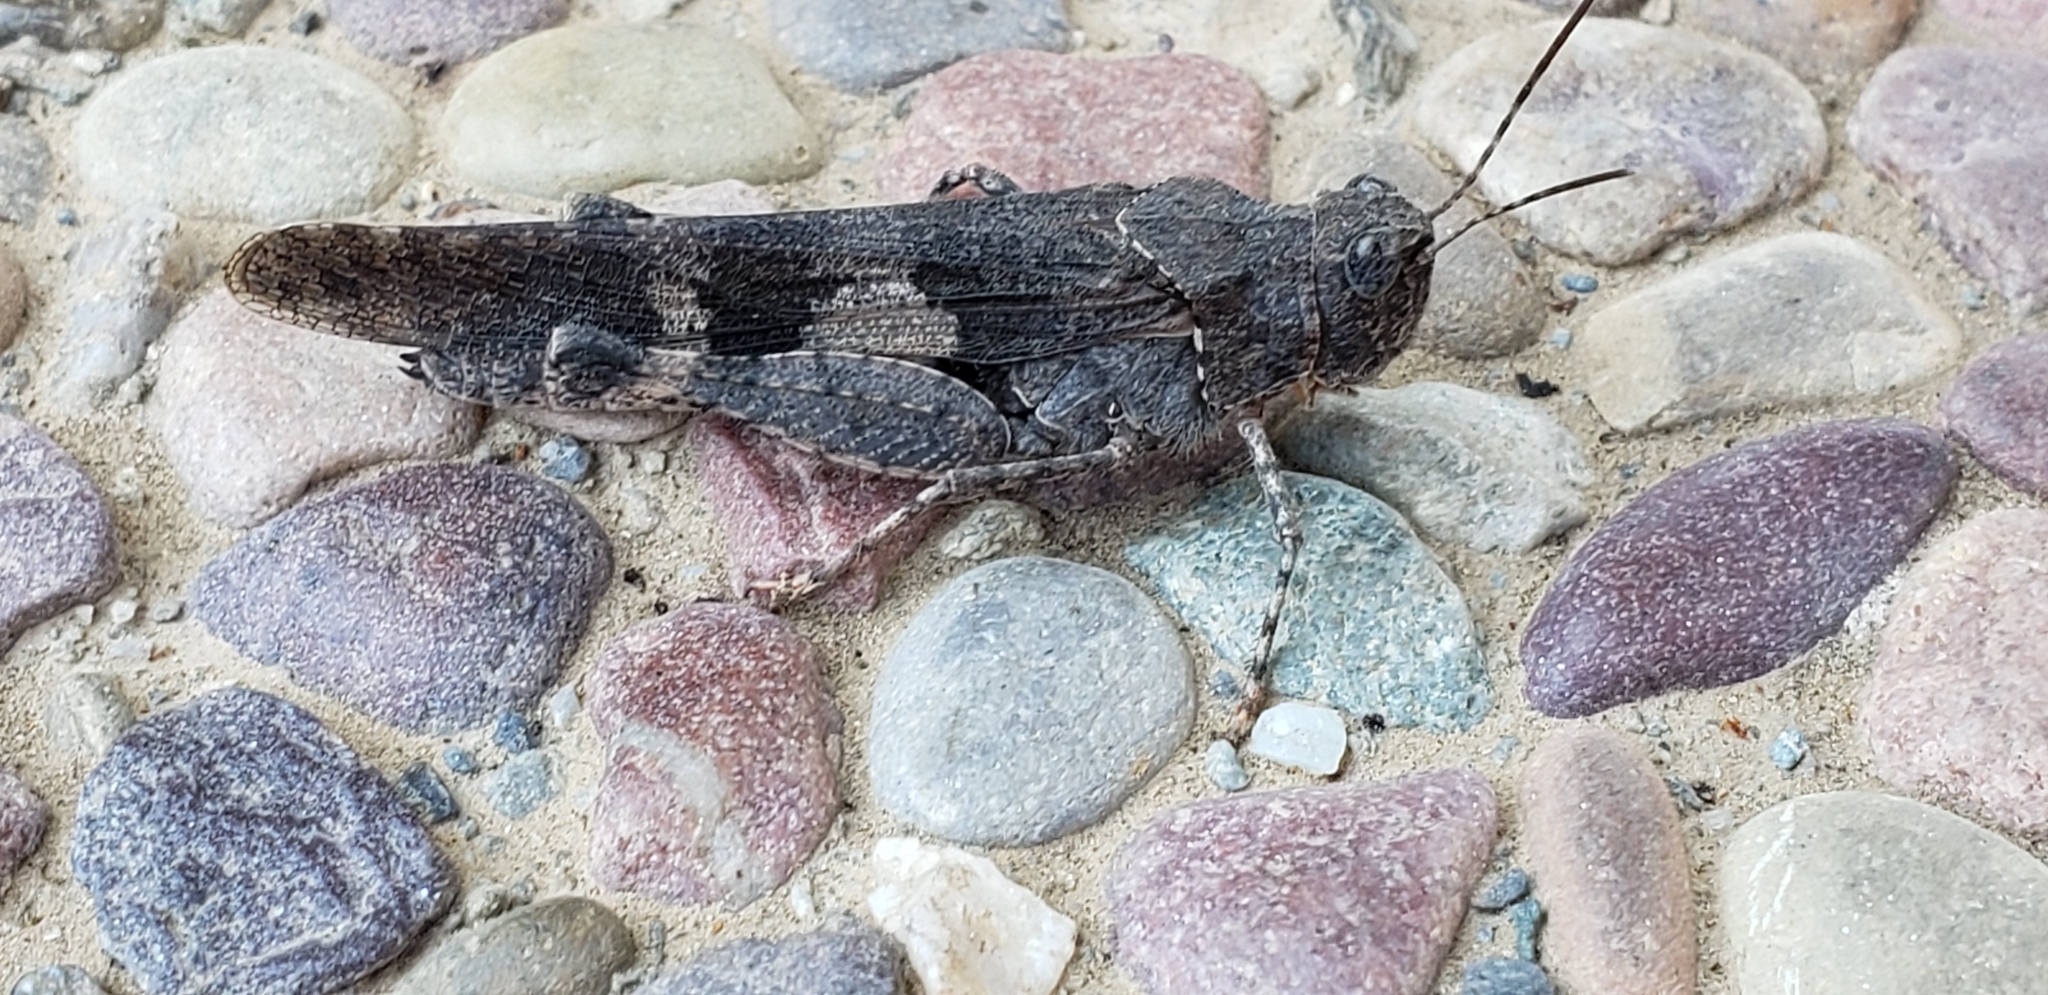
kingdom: Animalia
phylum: Arthropoda
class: Insecta
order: Orthoptera
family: Acrididae
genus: Trimerotropis
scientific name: Trimerotropis fontana
